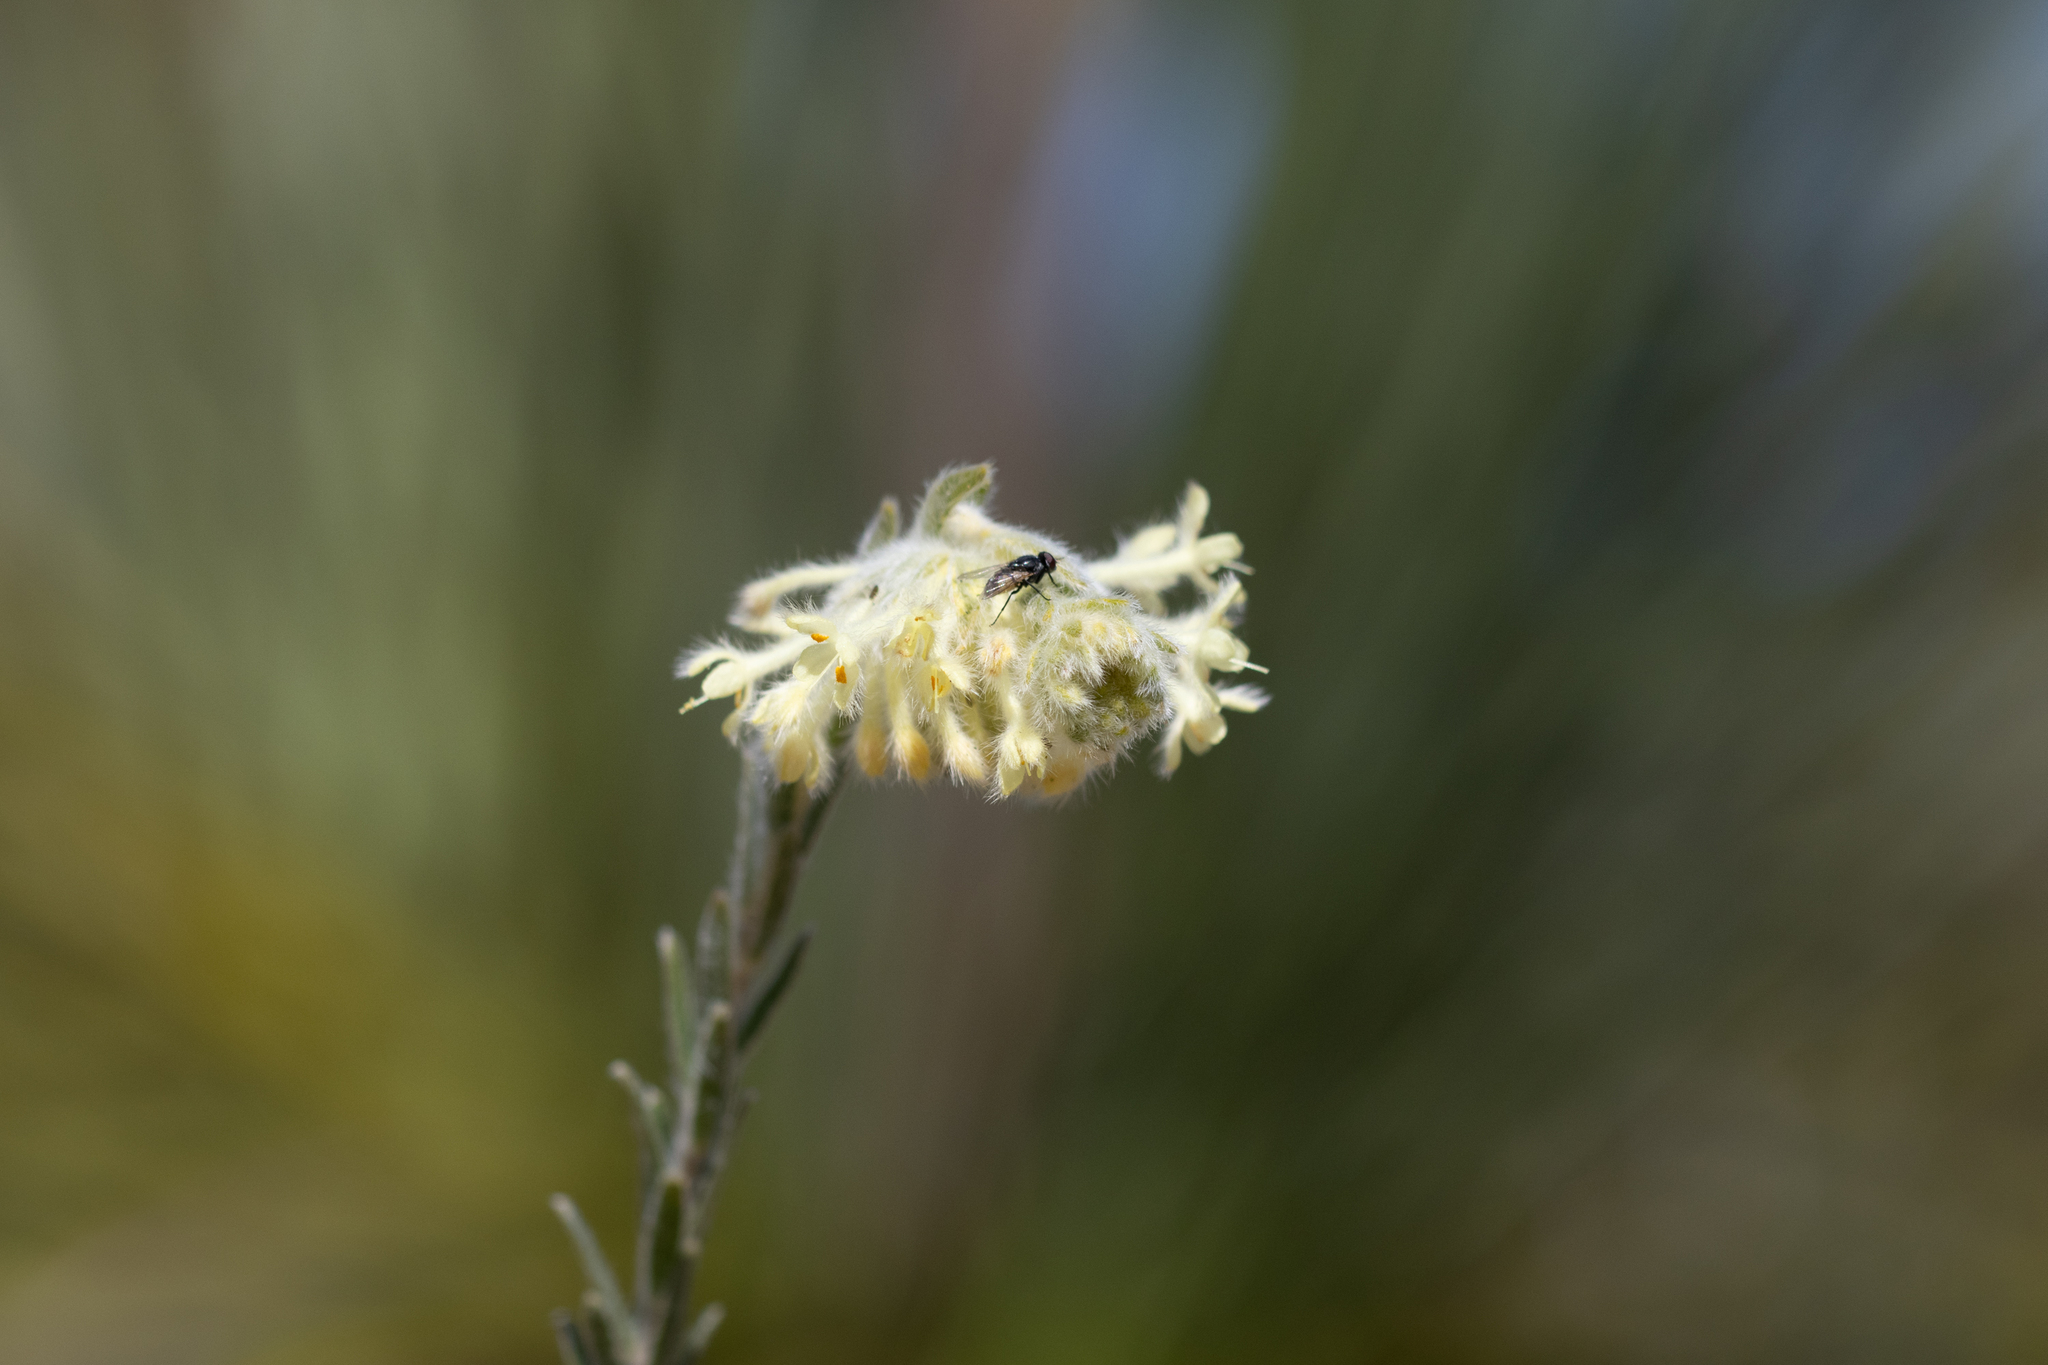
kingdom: Plantae
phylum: Tracheophyta
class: Magnoliopsida
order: Malvales
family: Thymelaeaceae
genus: Pimelea
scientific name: Pimelea octophylla
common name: Woolly riceflower
